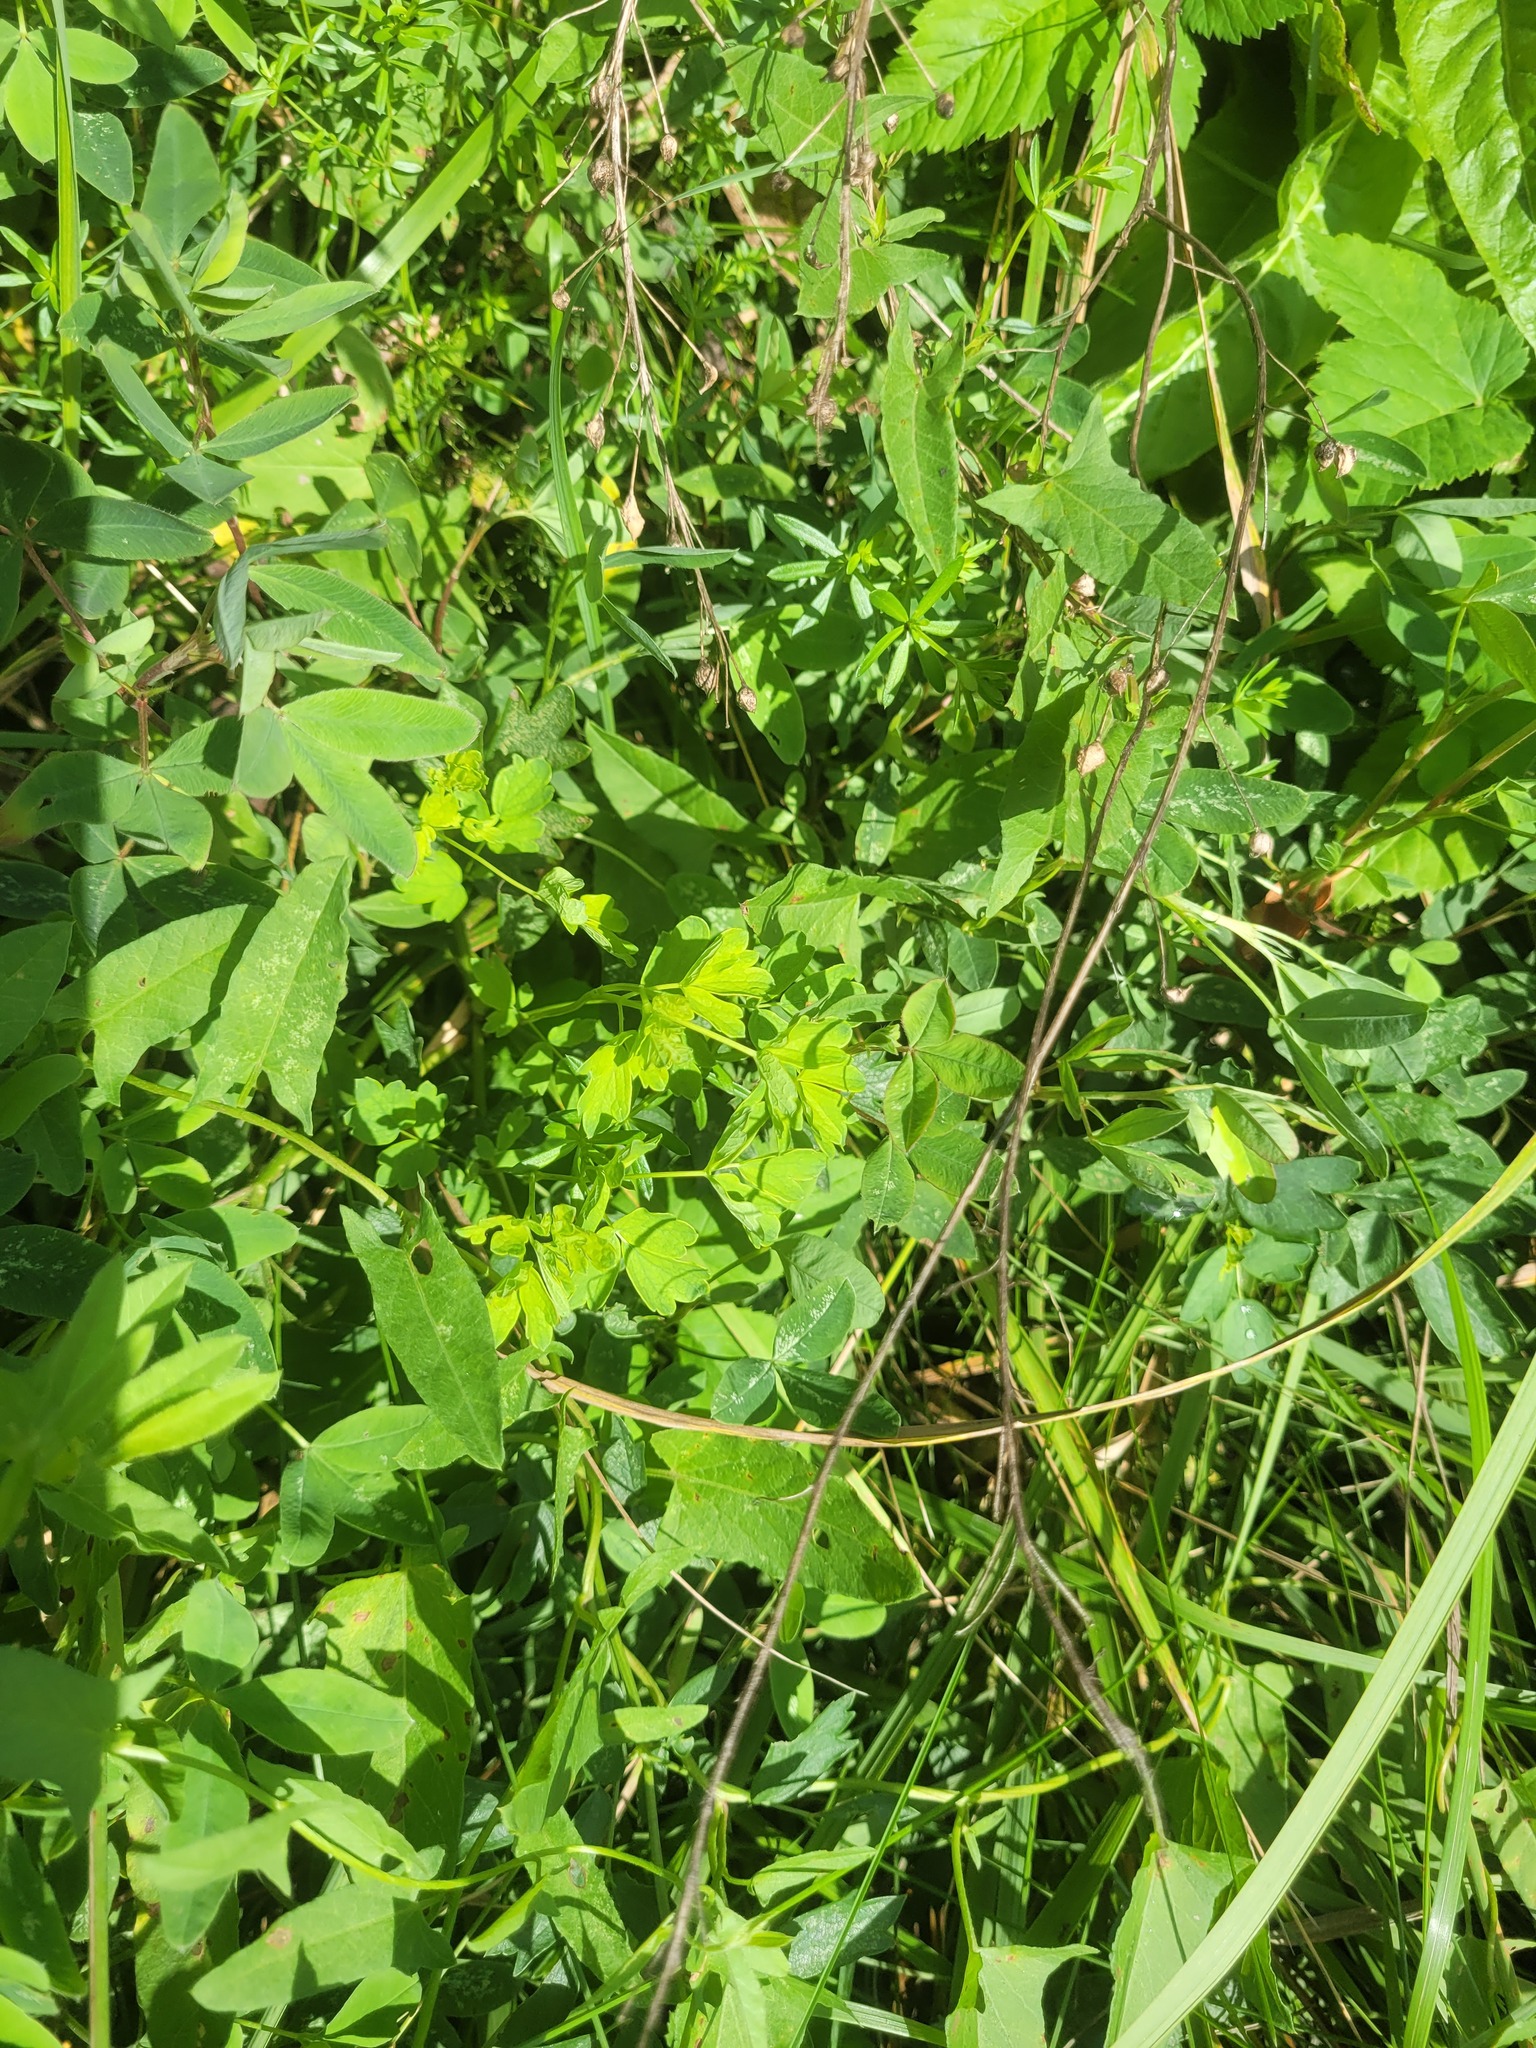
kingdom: Plantae
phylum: Tracheophyta
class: Magnoliopsida
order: Ranunculales
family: Ranunculaceae
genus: Thalictrum
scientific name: Thalictrum flavum
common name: Common meadow-rue
